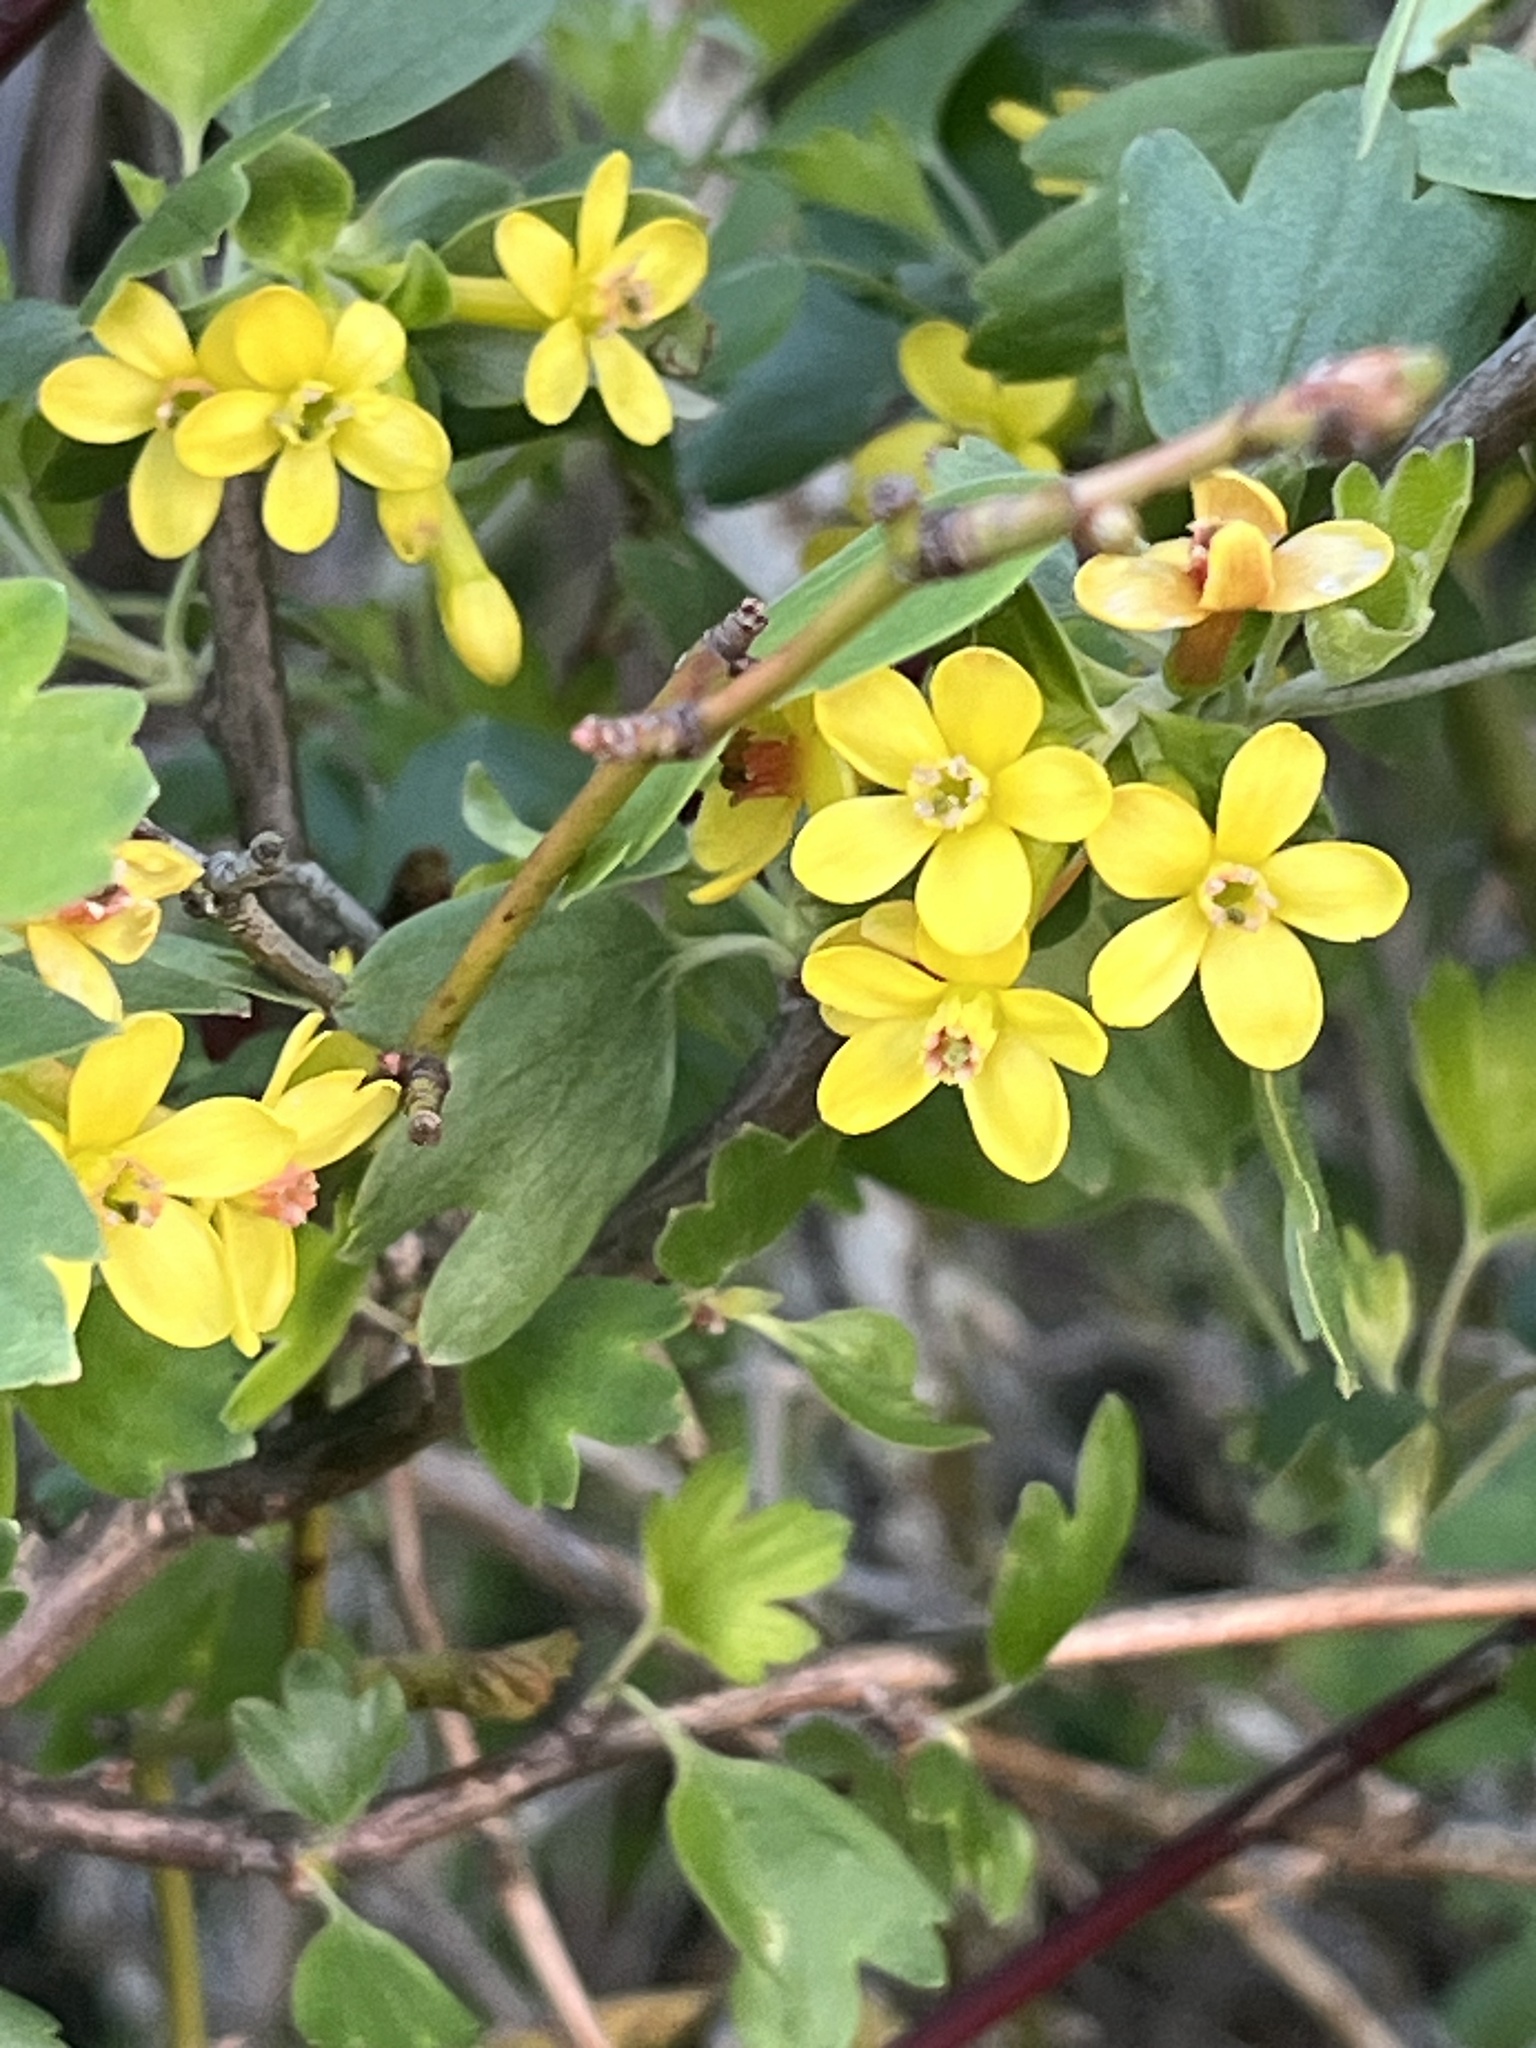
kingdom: Plantae
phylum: Tracheophyta
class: Magnoliopsida
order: Saxifragales
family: Grossulariaceae
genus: Ribes
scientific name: Ribes aureum
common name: Golden currant
